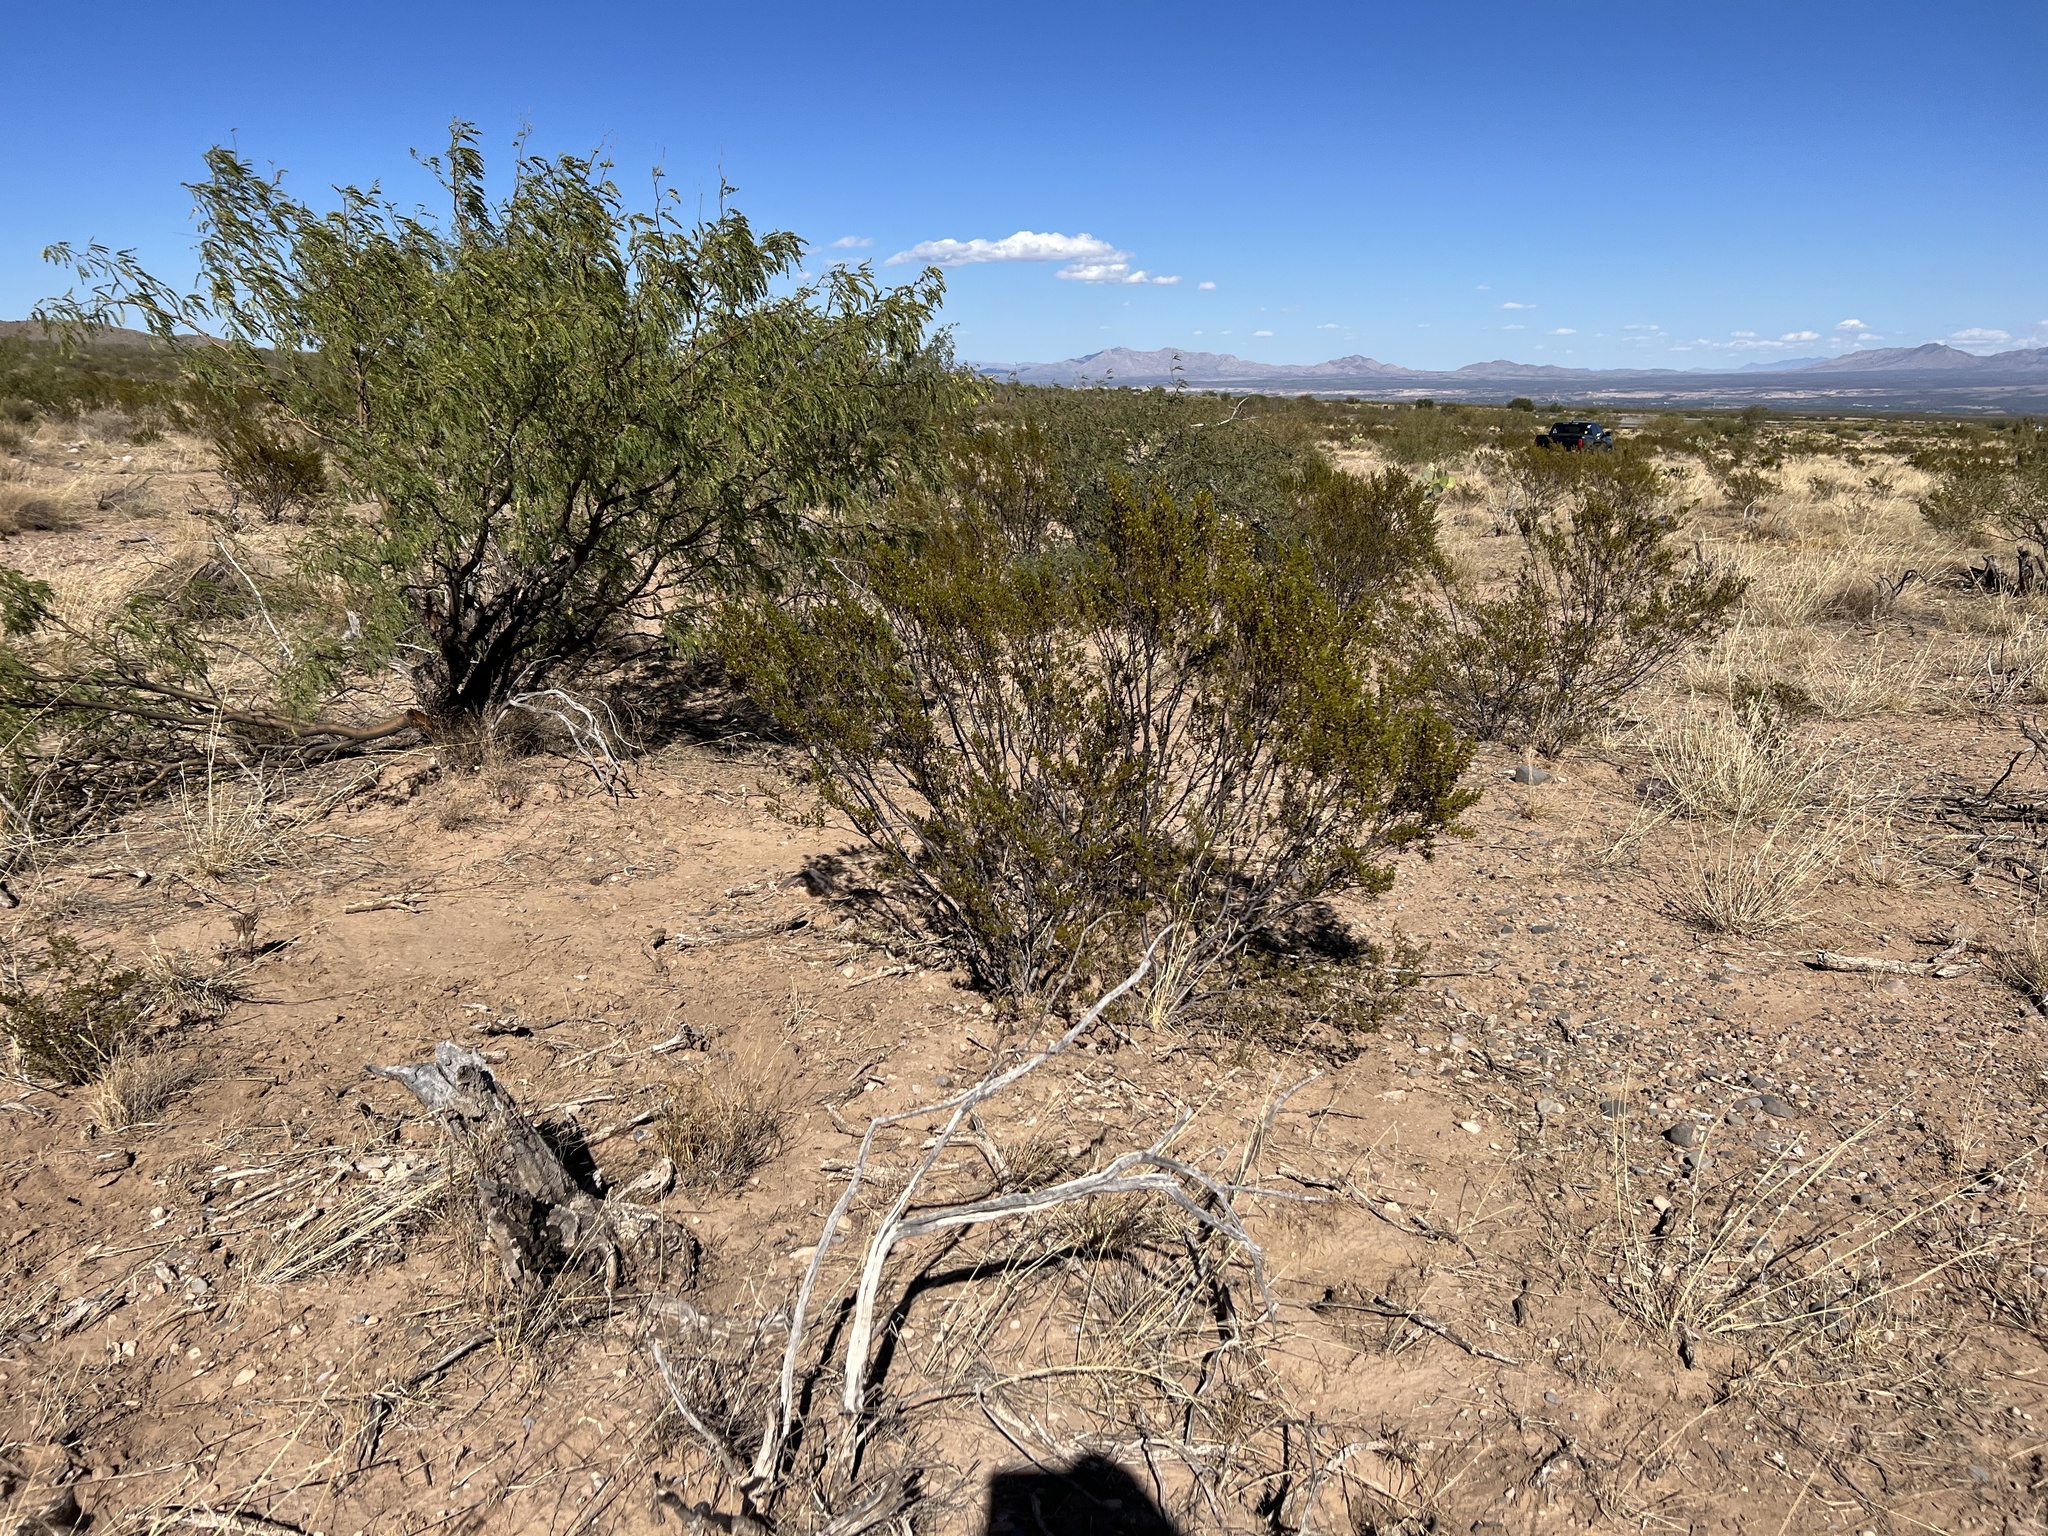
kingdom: Plantae
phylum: Tracheophyta
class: Magnoliopsida
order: Zygophyllales
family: Zygophyllaceae
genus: Larrea
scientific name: Larrea tridentata
